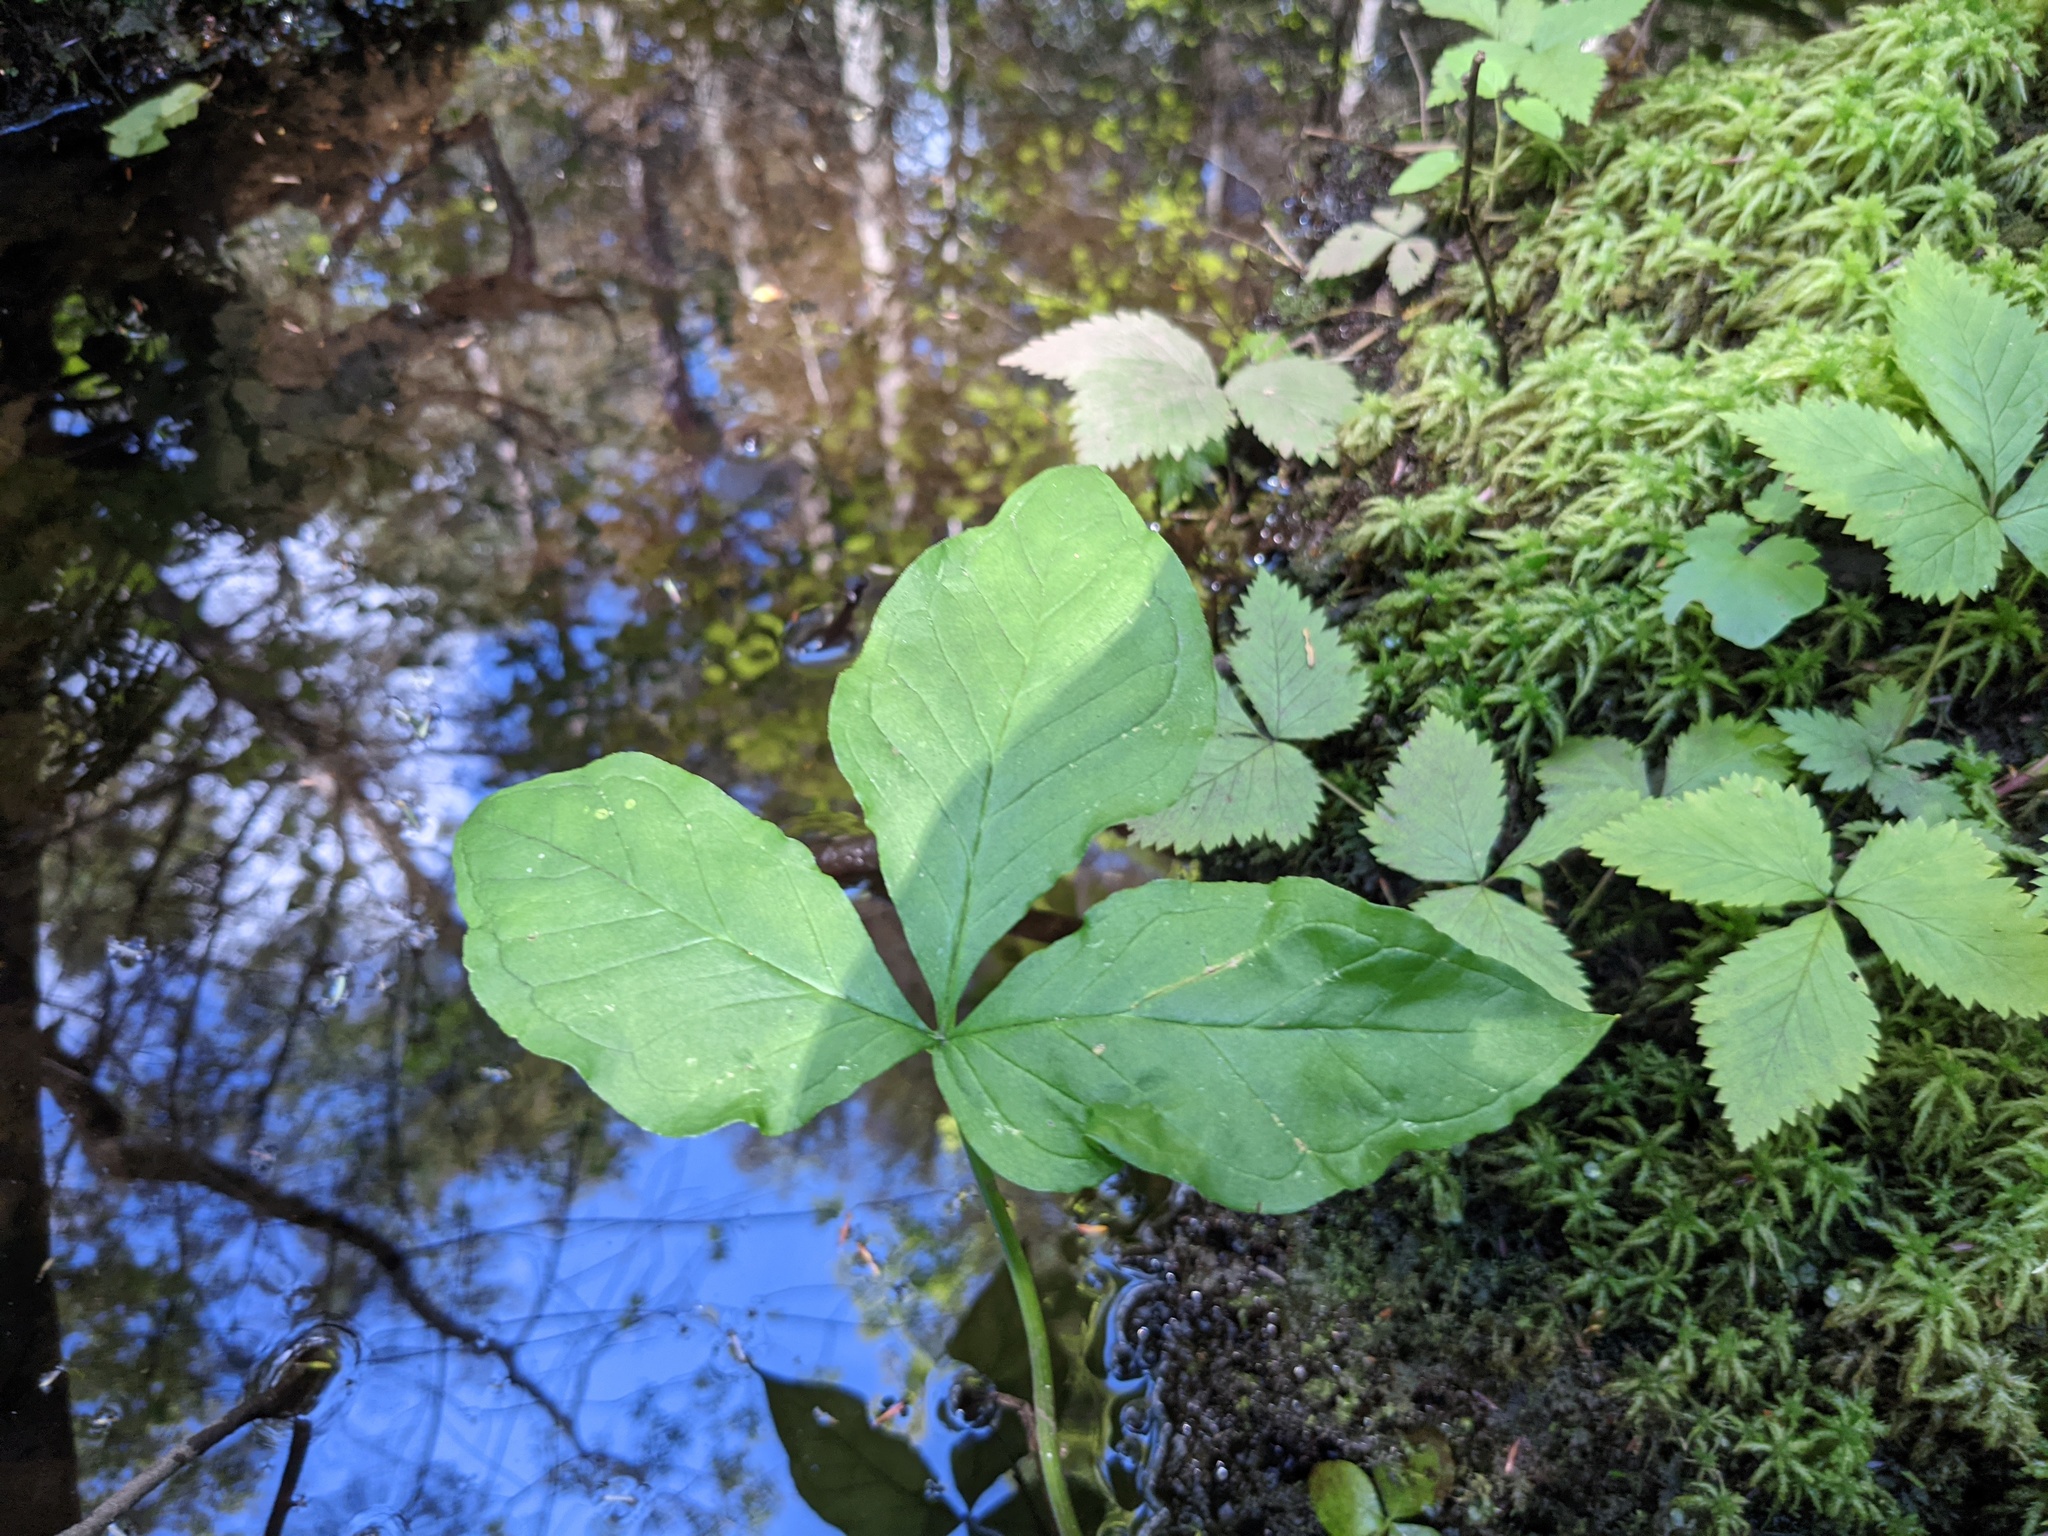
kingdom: Plantae
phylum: Tracheophyta
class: Liliopsida
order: Alismatales
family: Araceae
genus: Arisaema
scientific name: Arisaema
